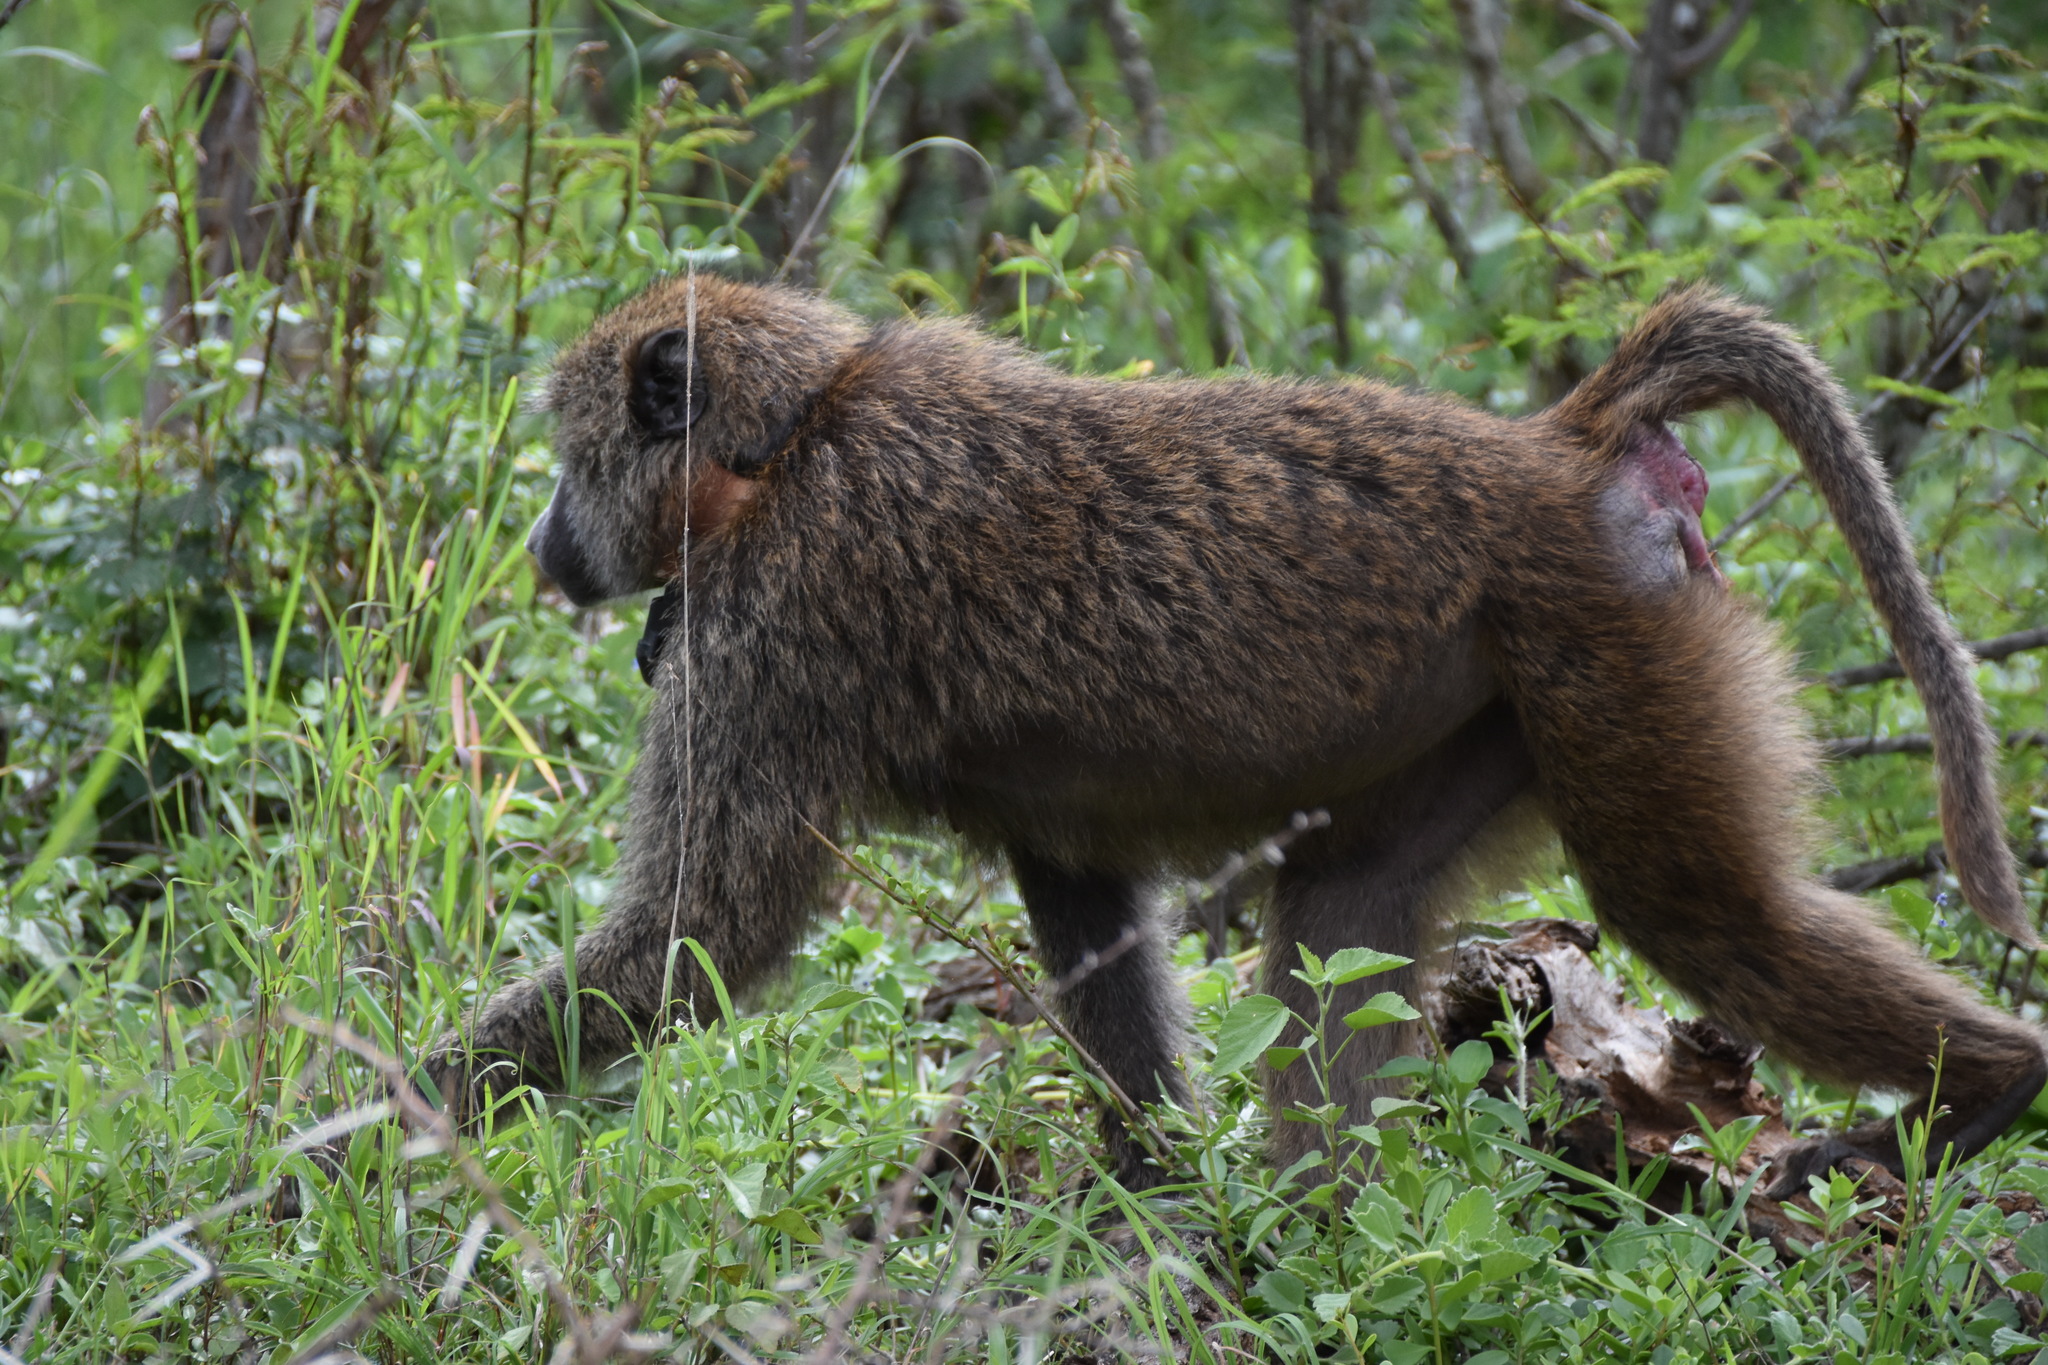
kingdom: Animalia
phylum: Chordata
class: Mammalia
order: Primates
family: Cercopithecidae
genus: Papio
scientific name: Papio anubis
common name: Olive baboon
